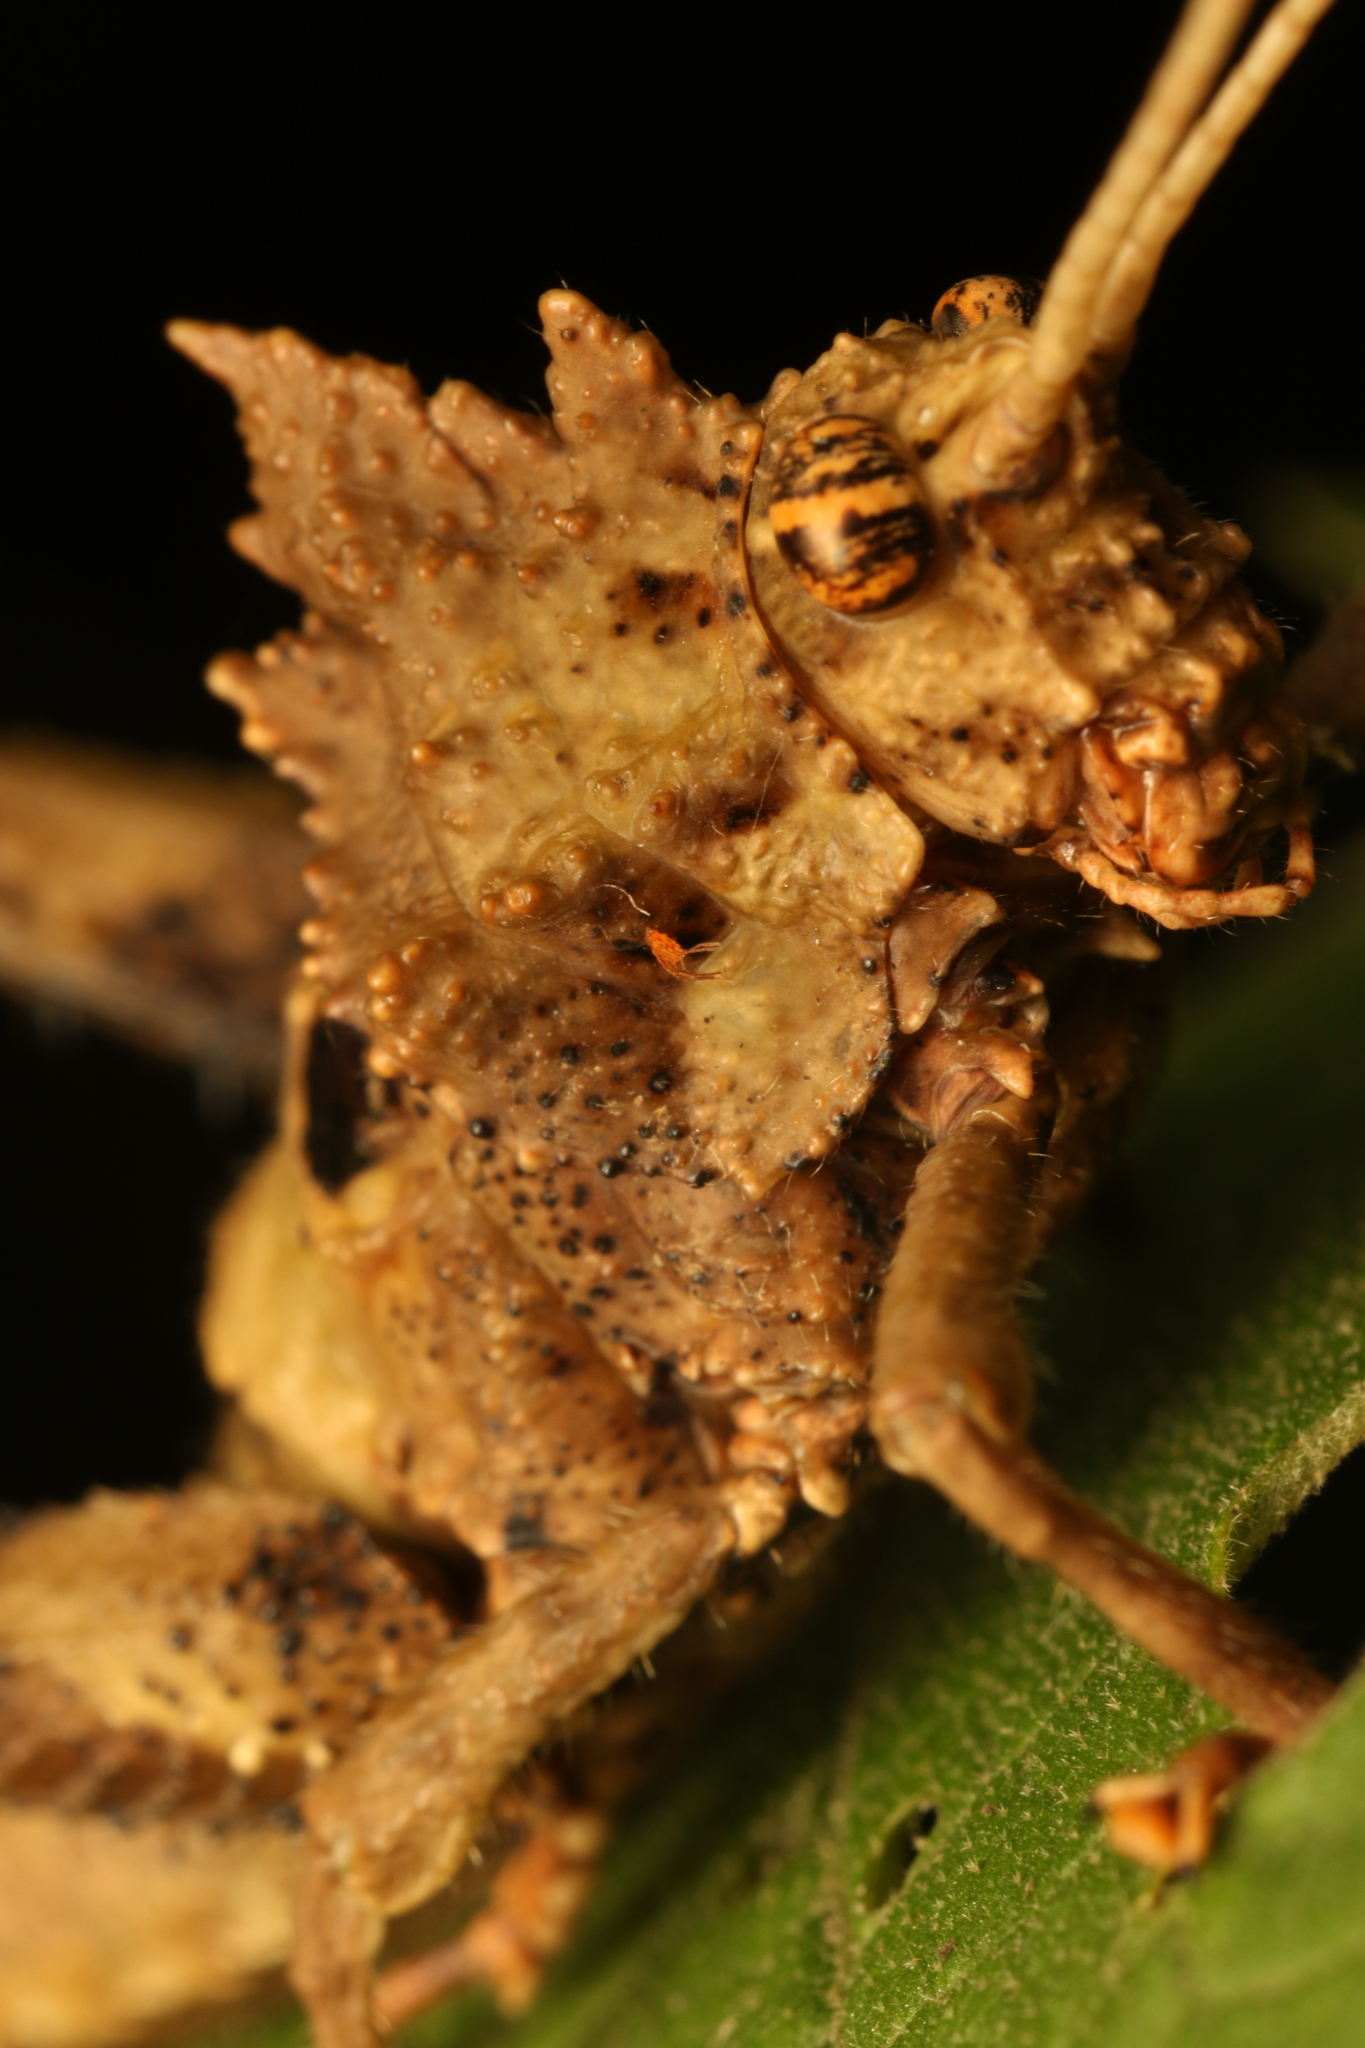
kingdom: Animalia
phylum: Arthropoda
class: Insecta
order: Orthoptera
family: Acrididae
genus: Pycnosarcus
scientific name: Pycnosarcus atavus
